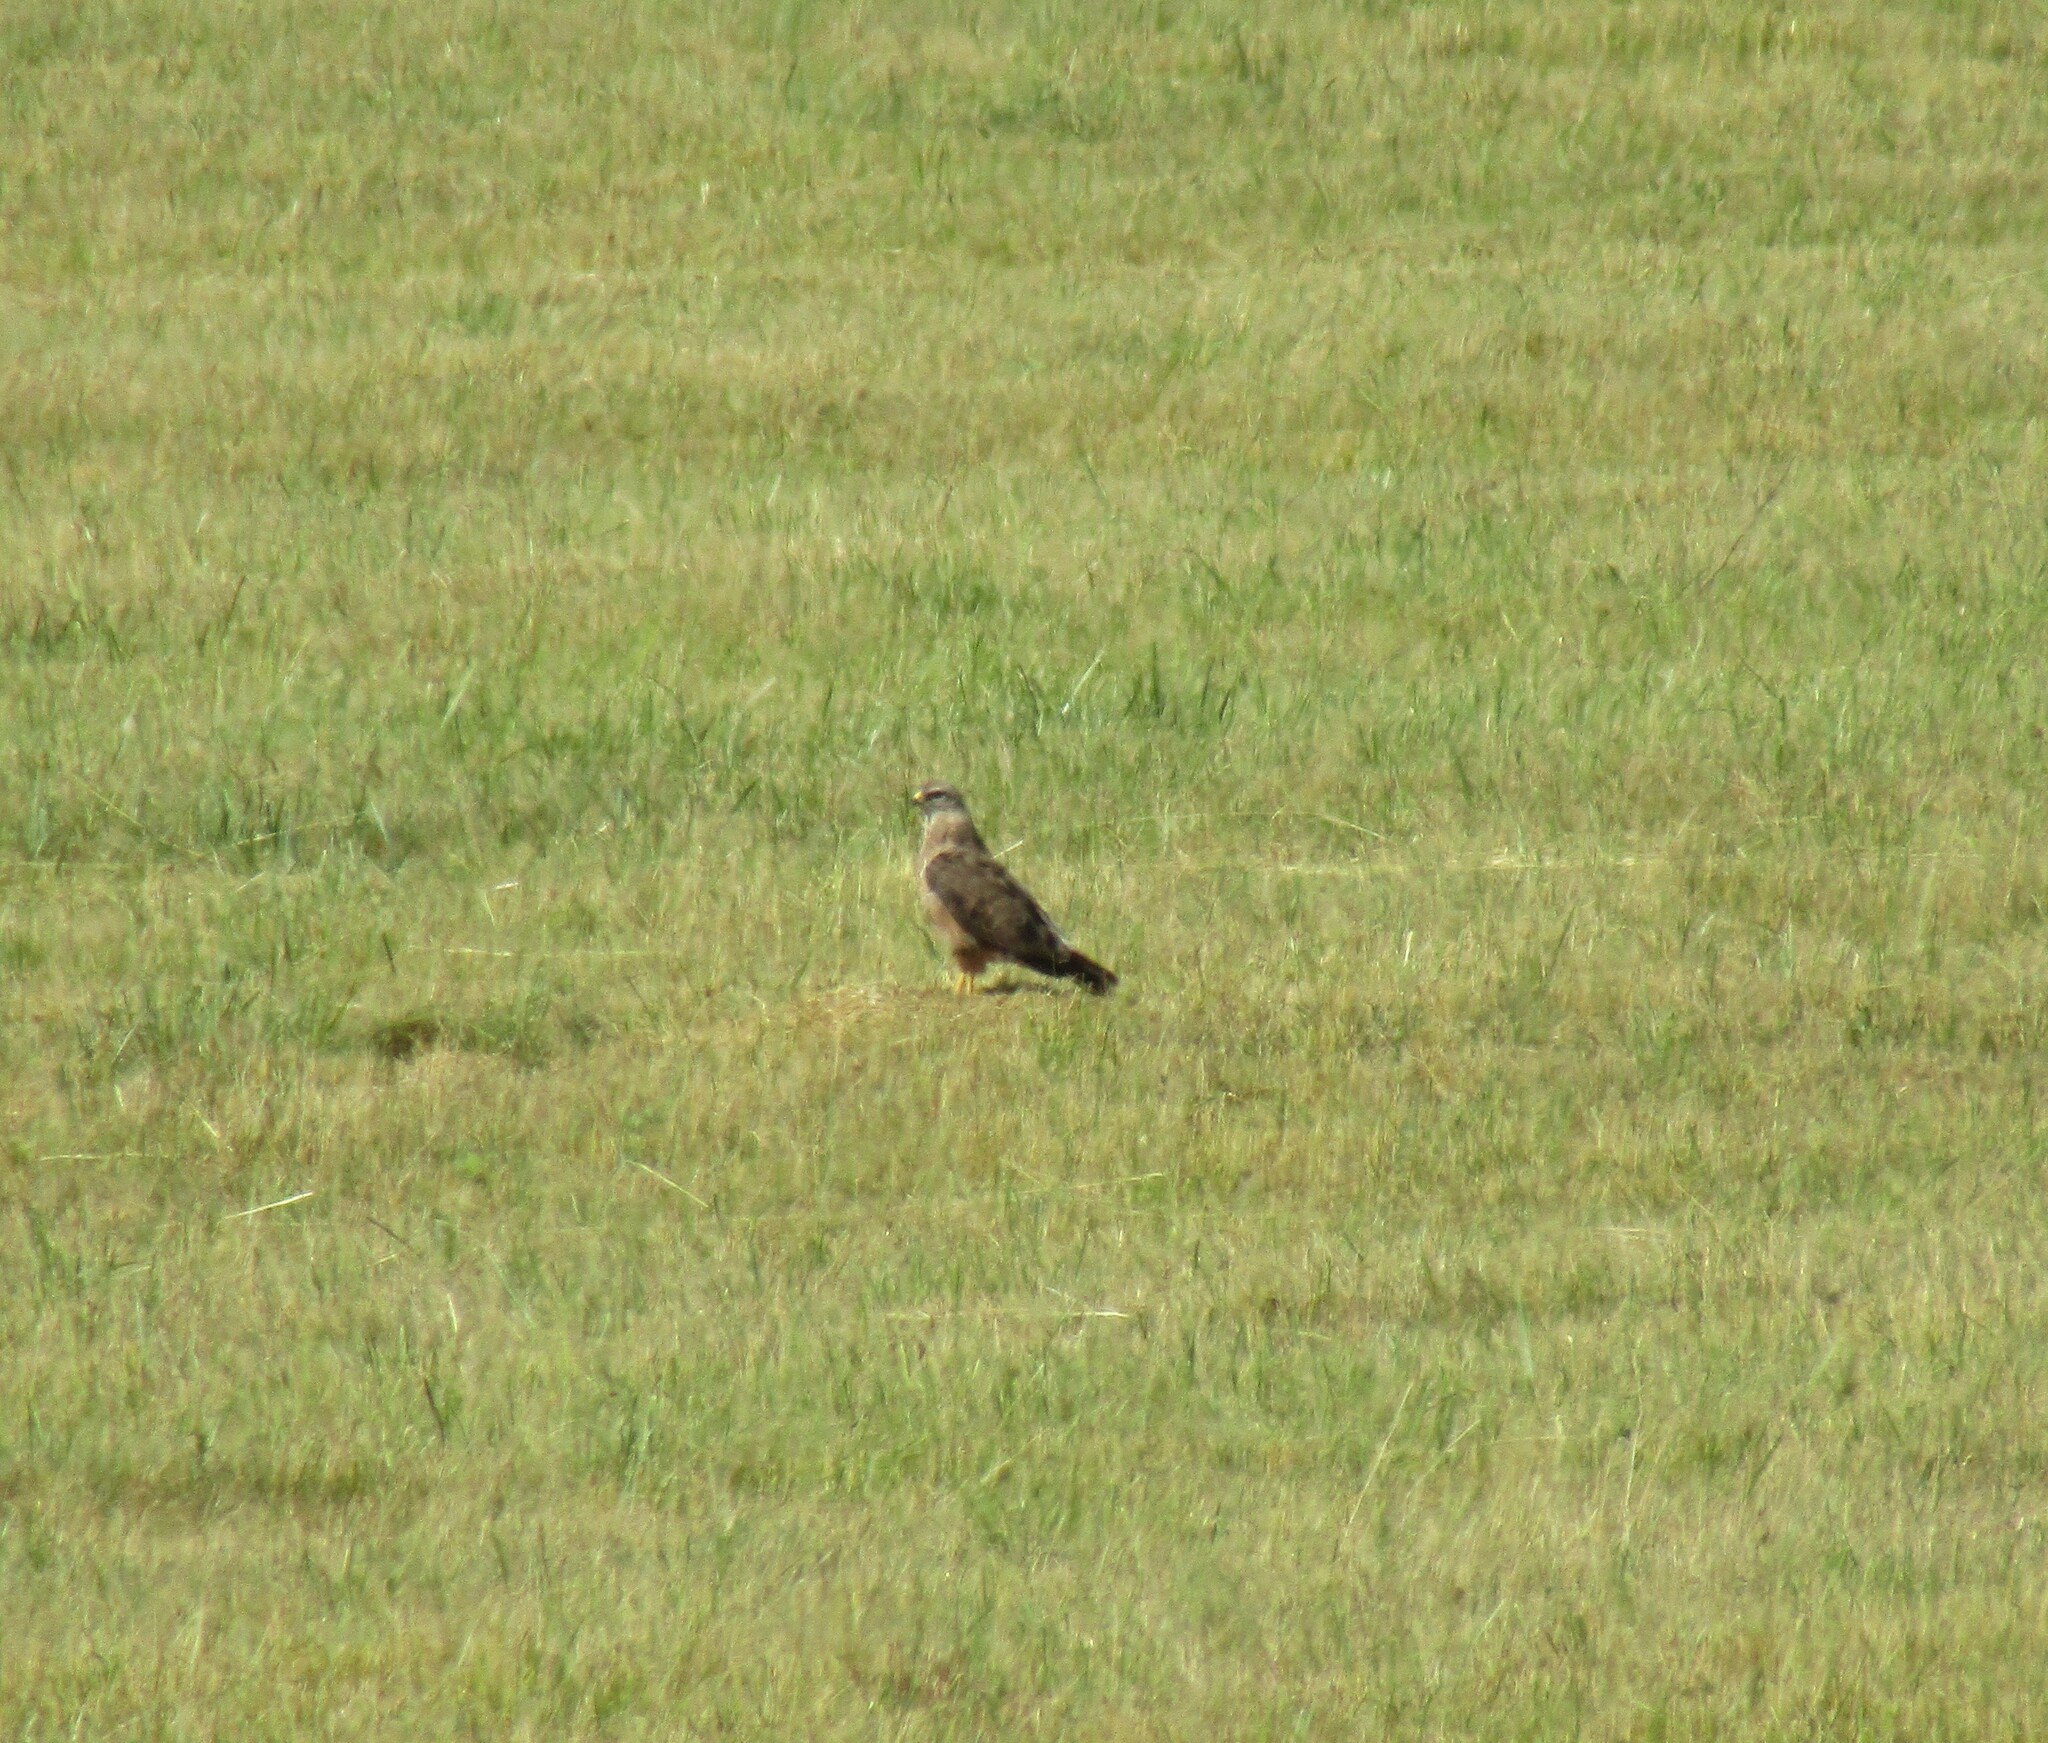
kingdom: Animalia
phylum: Chordata
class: Aves
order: Accipitriformes
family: Accipitridae
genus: Buteo
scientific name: Buteo buteo
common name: Common buzzard
